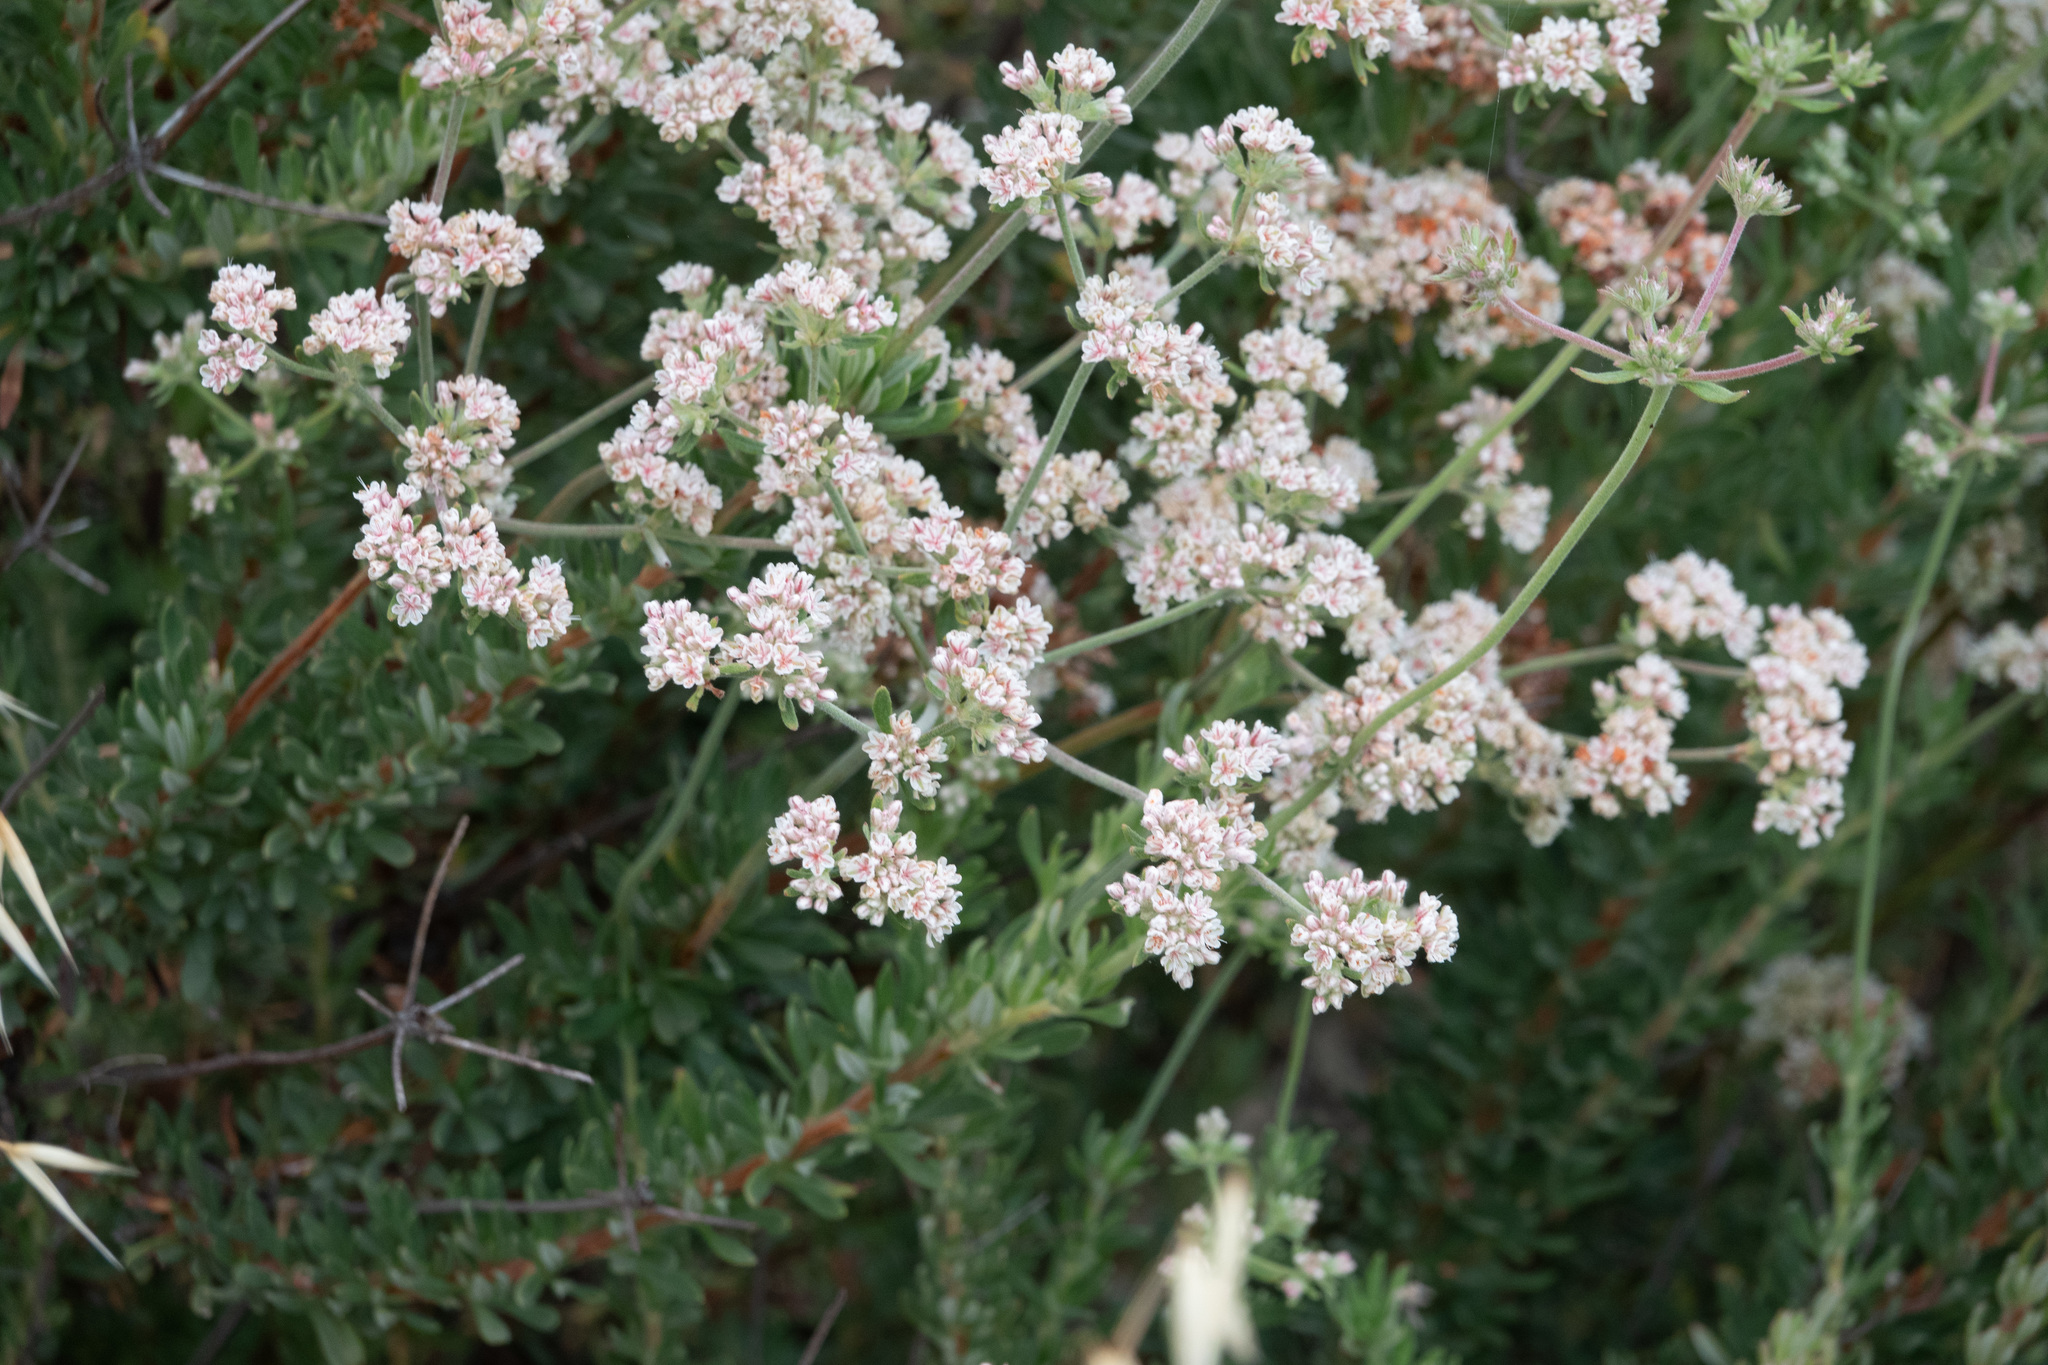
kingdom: Plantae
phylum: Tracheophyta
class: Magnoliopsida
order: Caryophyllales
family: Polygonaceae
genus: Eriogonum
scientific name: Eriogonum fasciculatum
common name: California wild buckwheat
